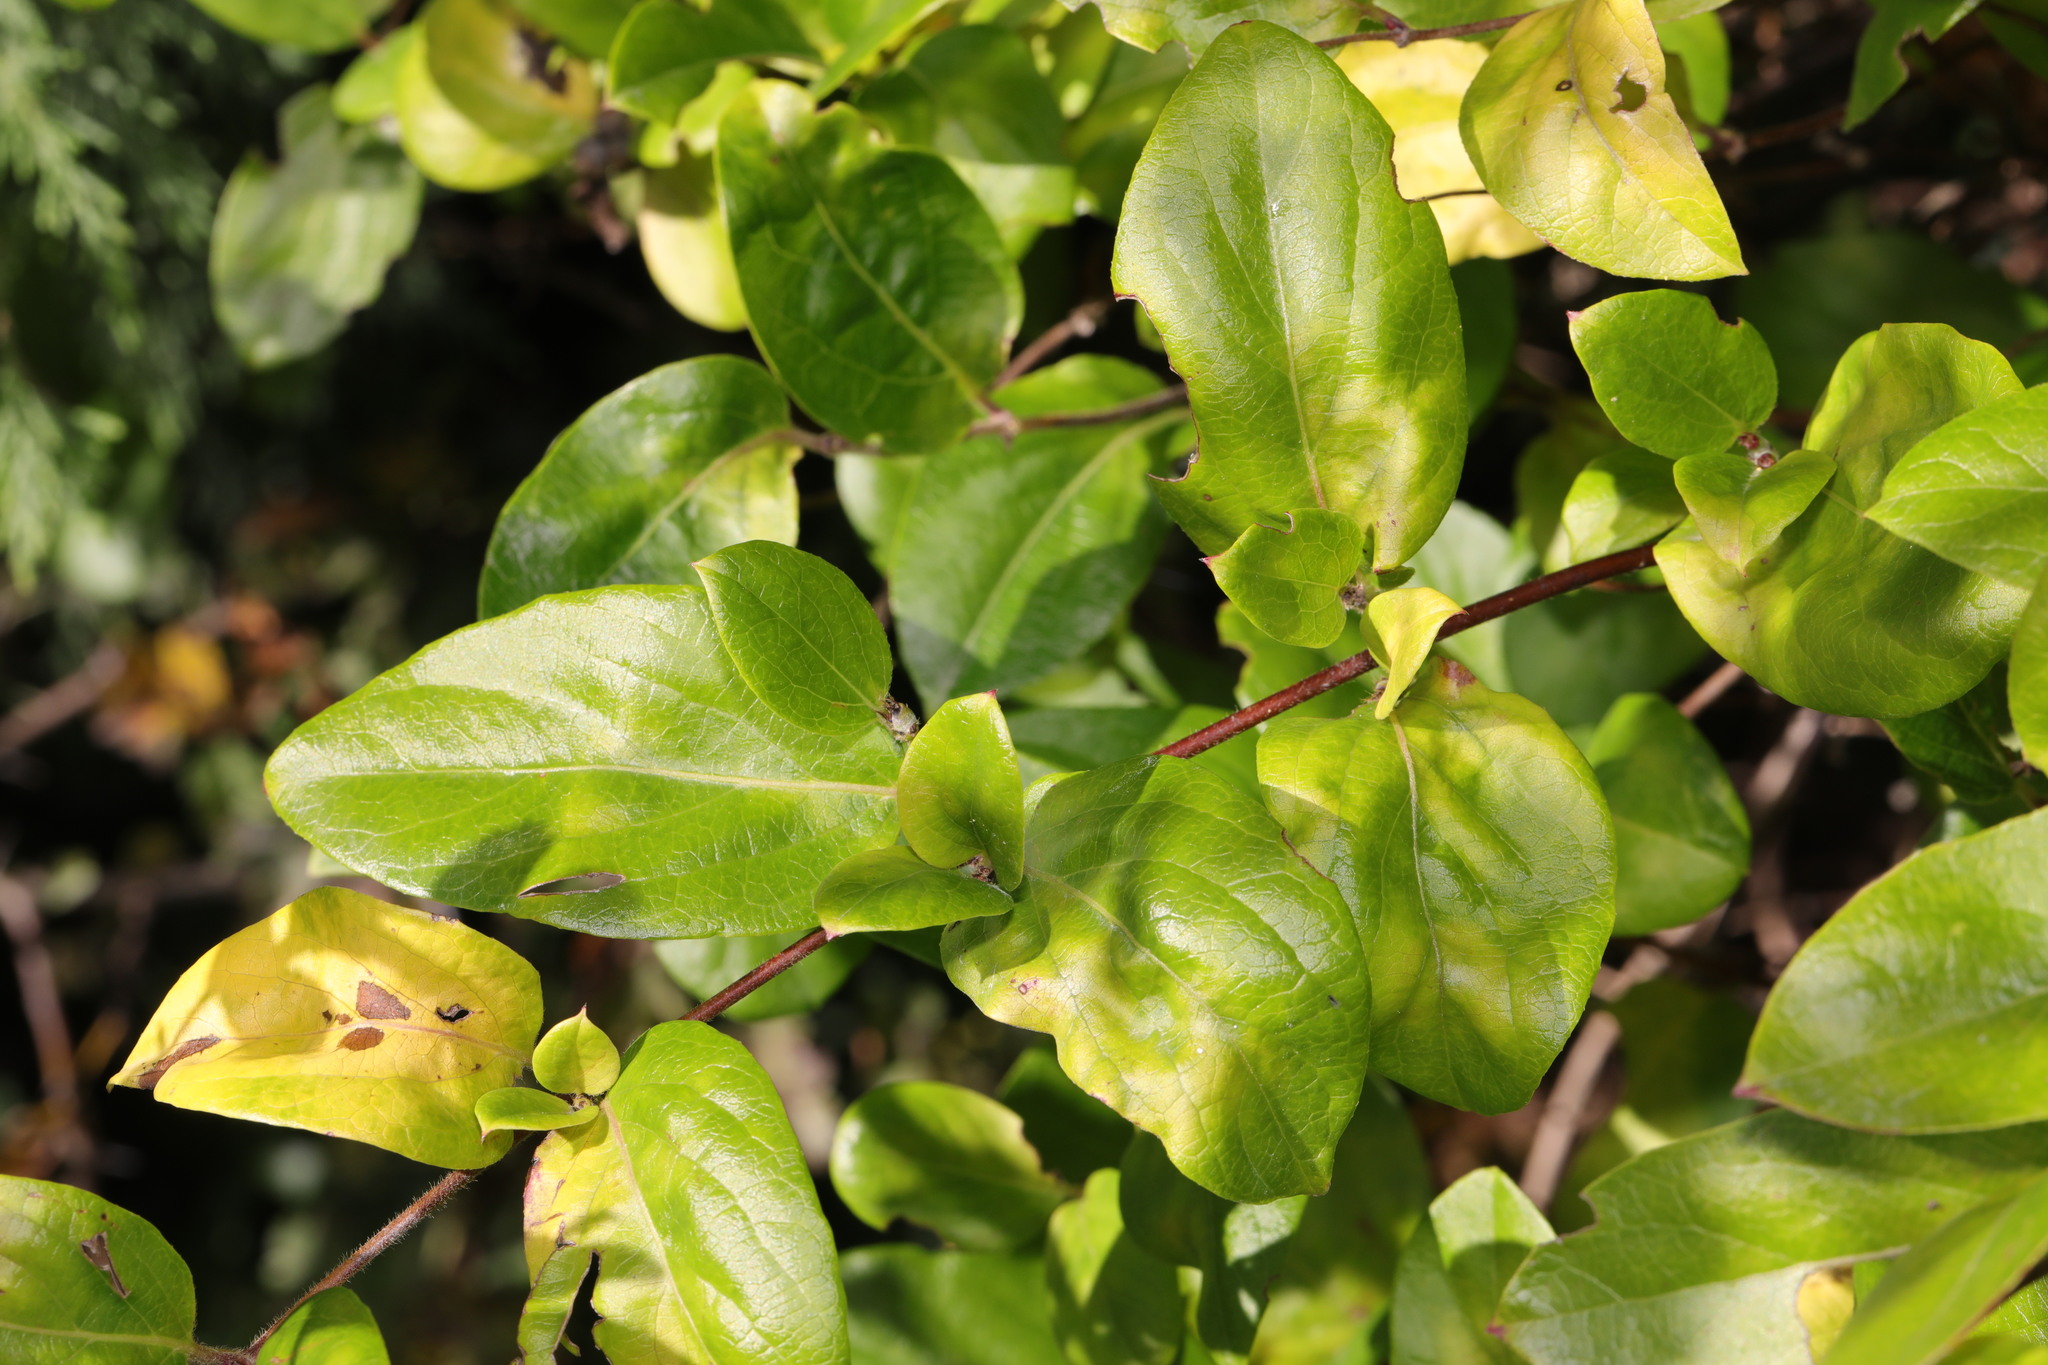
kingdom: Plantae
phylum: Tracheophyta
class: Magnoliopsida
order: Dipsacales
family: Caprifoliaceae
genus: Lonicera
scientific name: Lonicera japonica
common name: Japanese honeysuckle
